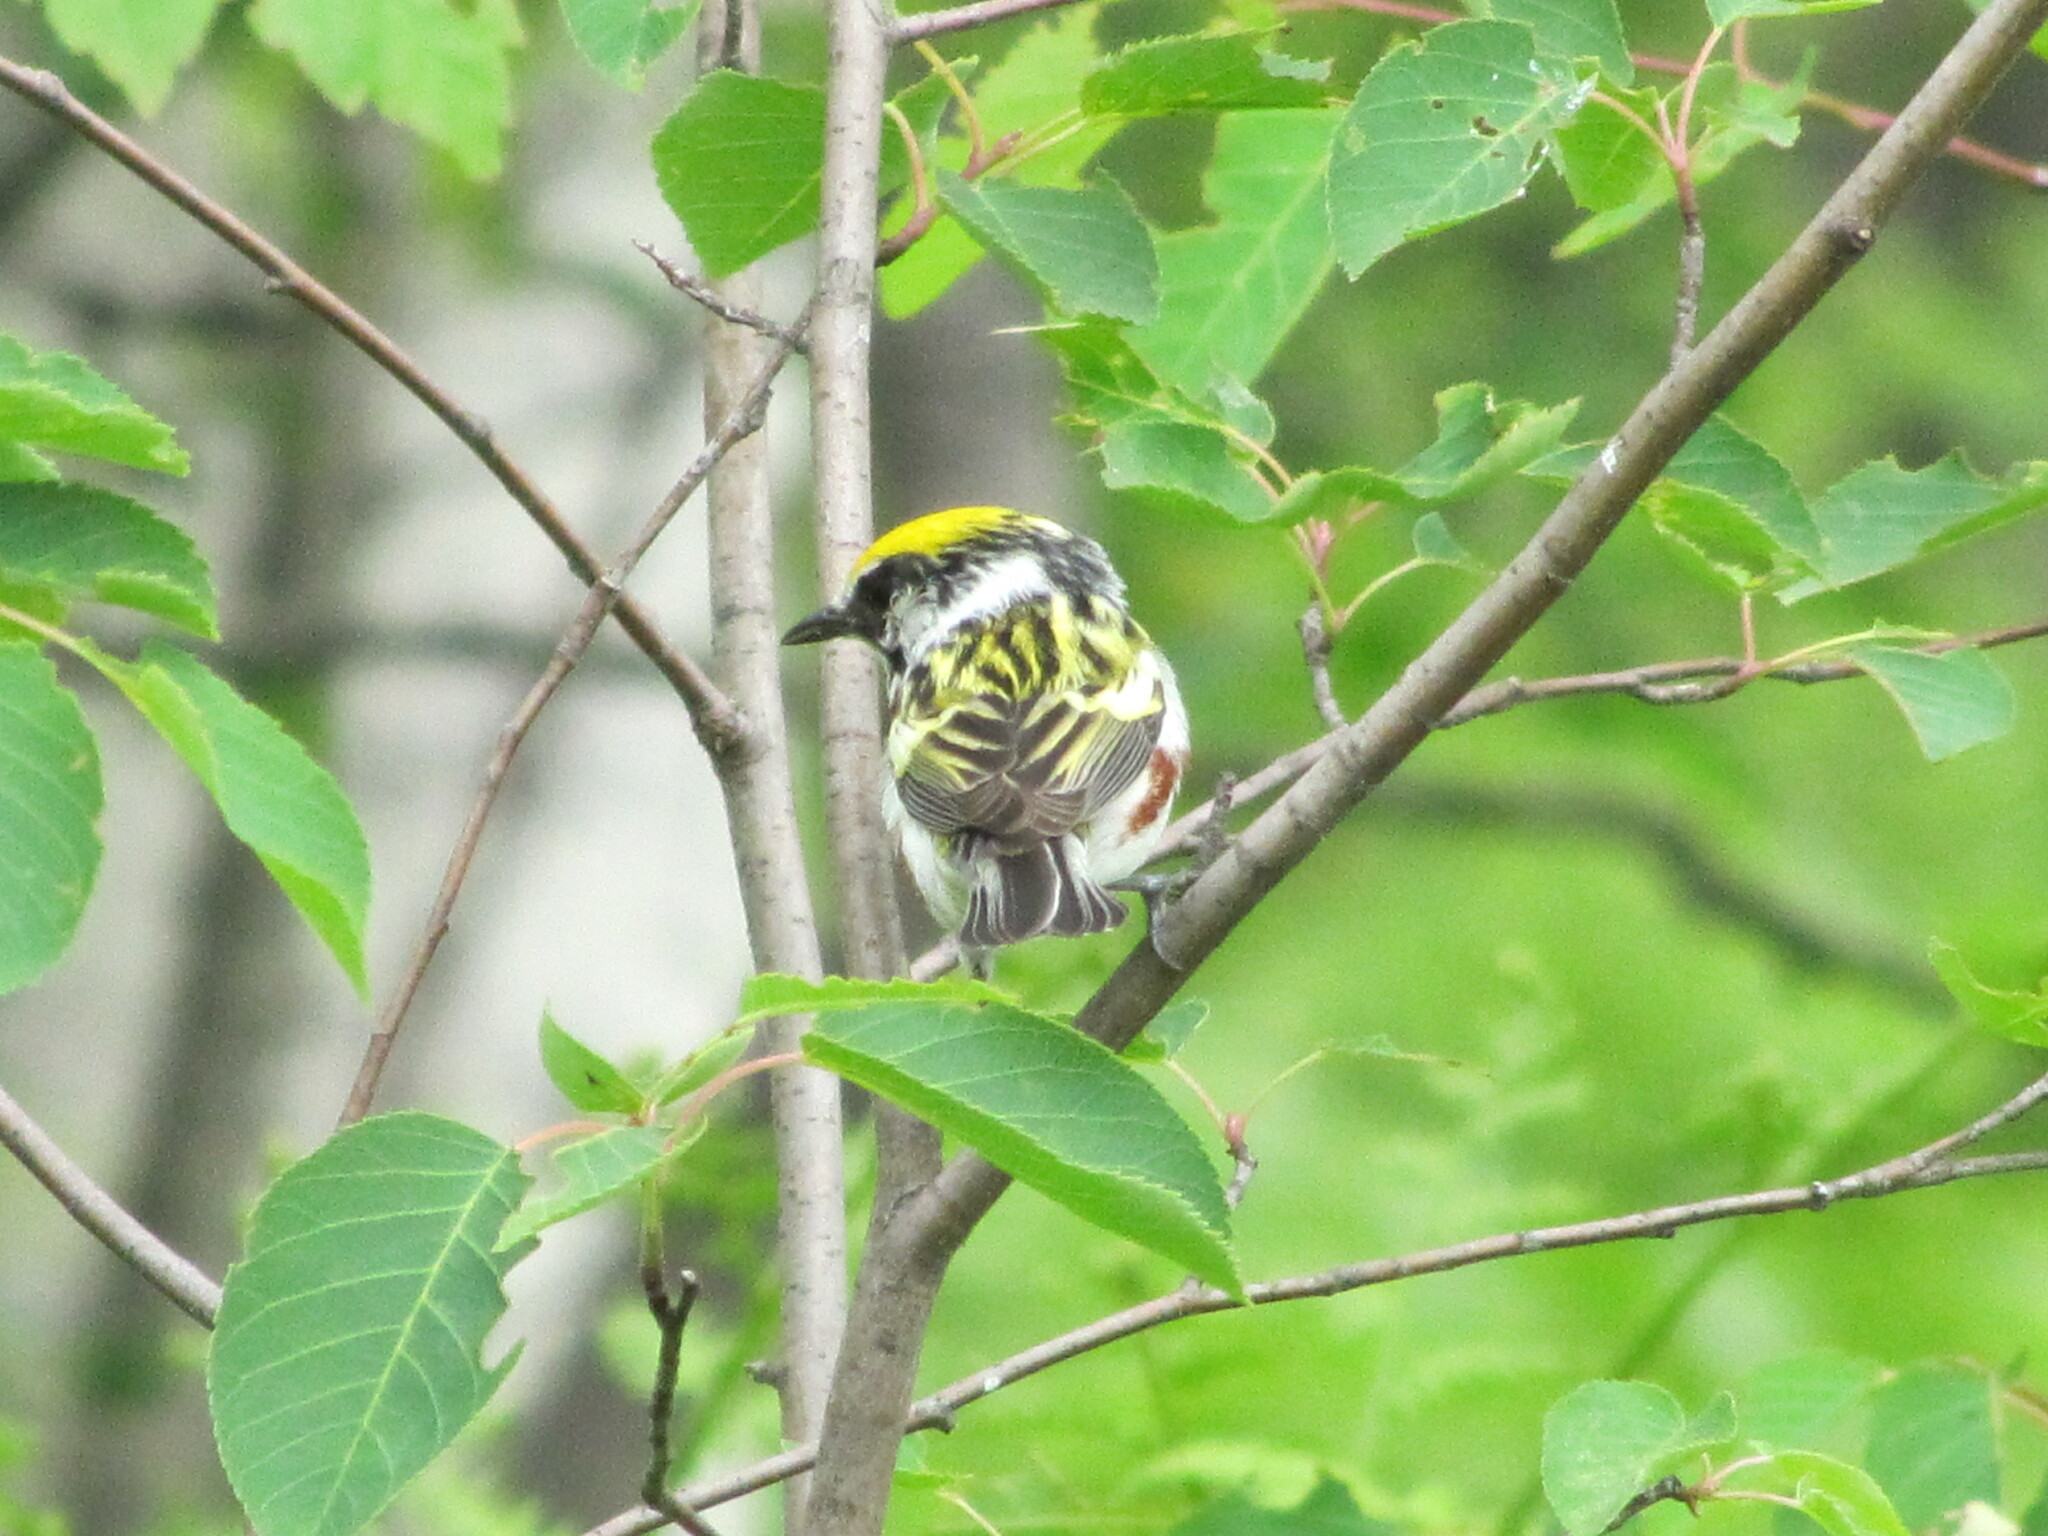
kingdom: Animalia
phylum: Chordata
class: Aves
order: Passeriformes
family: Parulidae
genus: Setophaga
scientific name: Setophaga pensylvanica
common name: Chestnut-sided warbler
